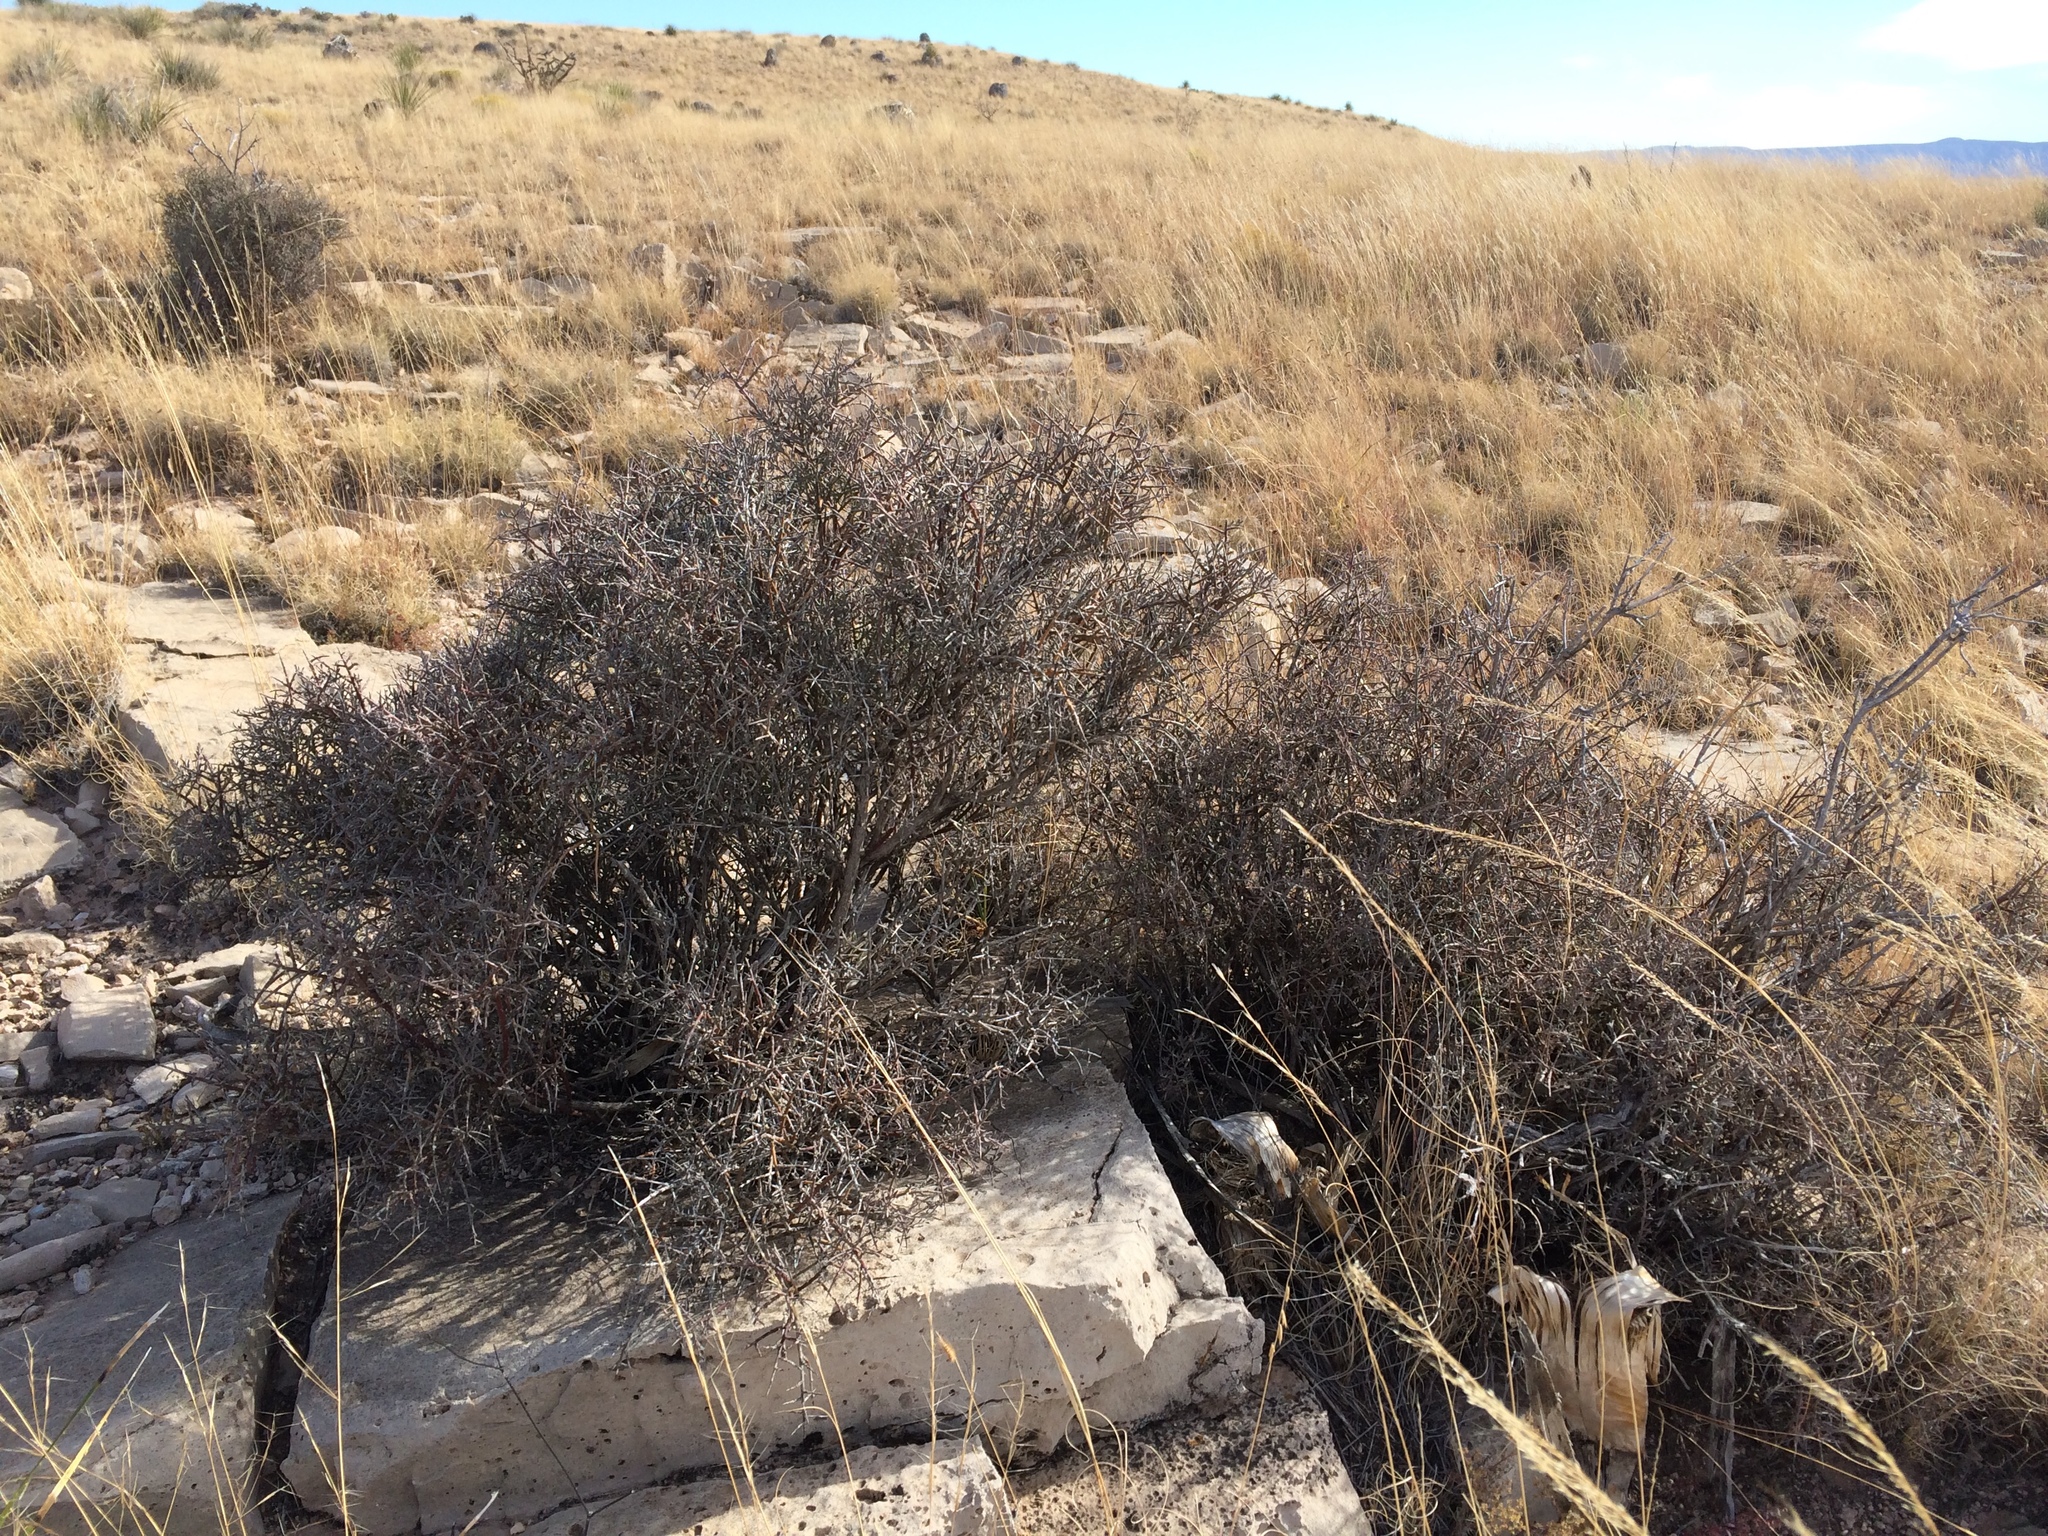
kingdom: Plantae
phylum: Tracheophyta
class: Magnoliopsida
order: Crossosomatales
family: Crossosomataceae
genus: Glossopetalon
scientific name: Glossopetalon spinescens
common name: Spring greasebush
